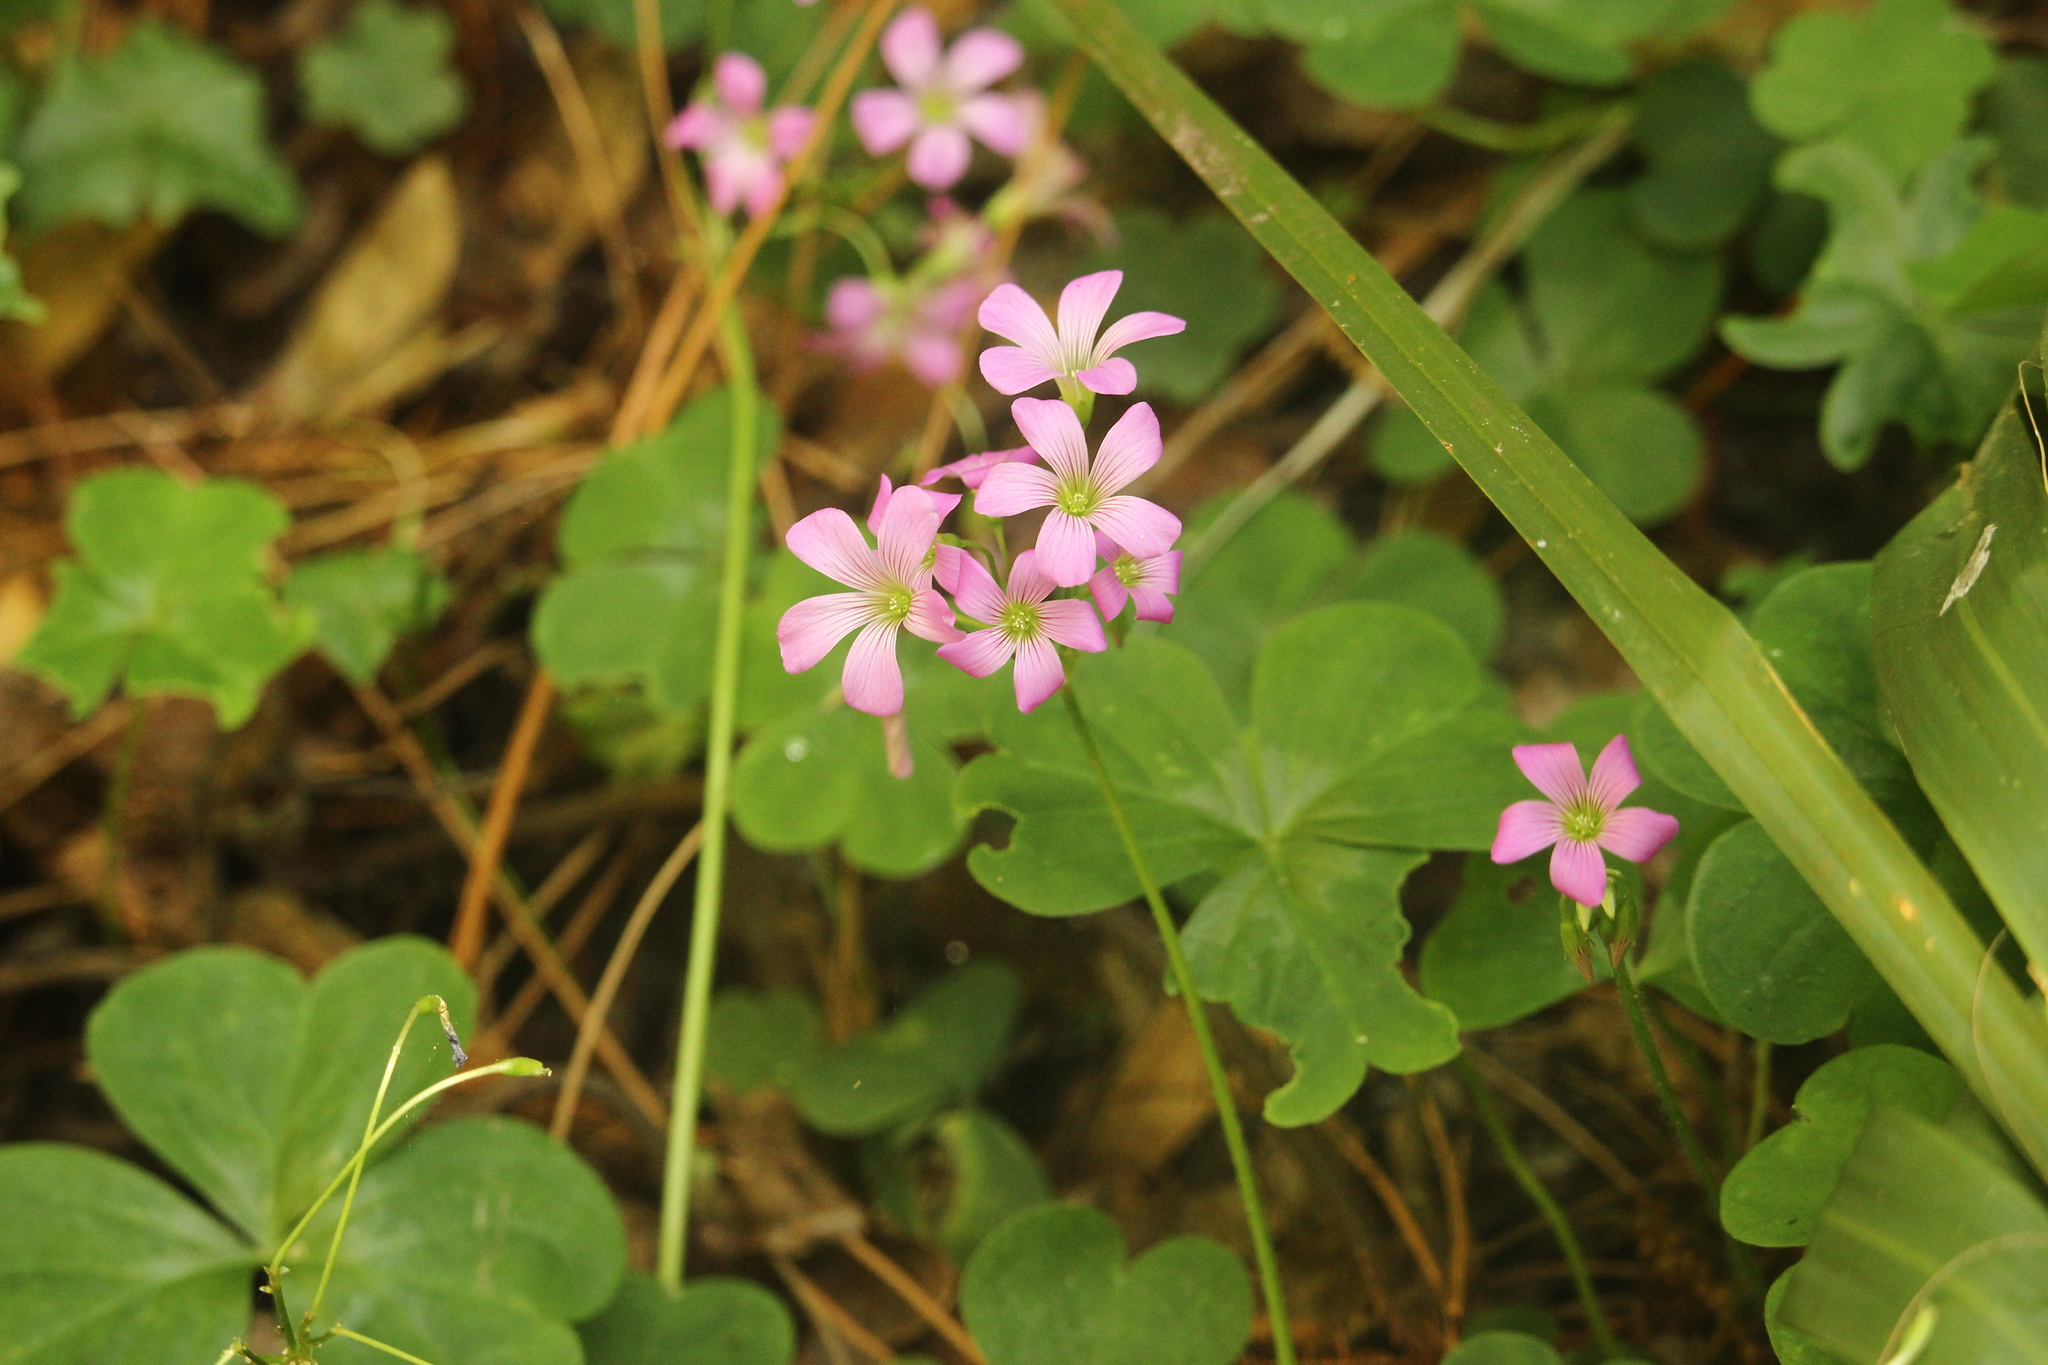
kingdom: Plantae
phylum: Tracheophyta
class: Magnoliopsida
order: Oxalidales
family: Oxalidaceae
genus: Oxalis
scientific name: Oxalis debilis
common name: Large-flowered pink-sorrel
